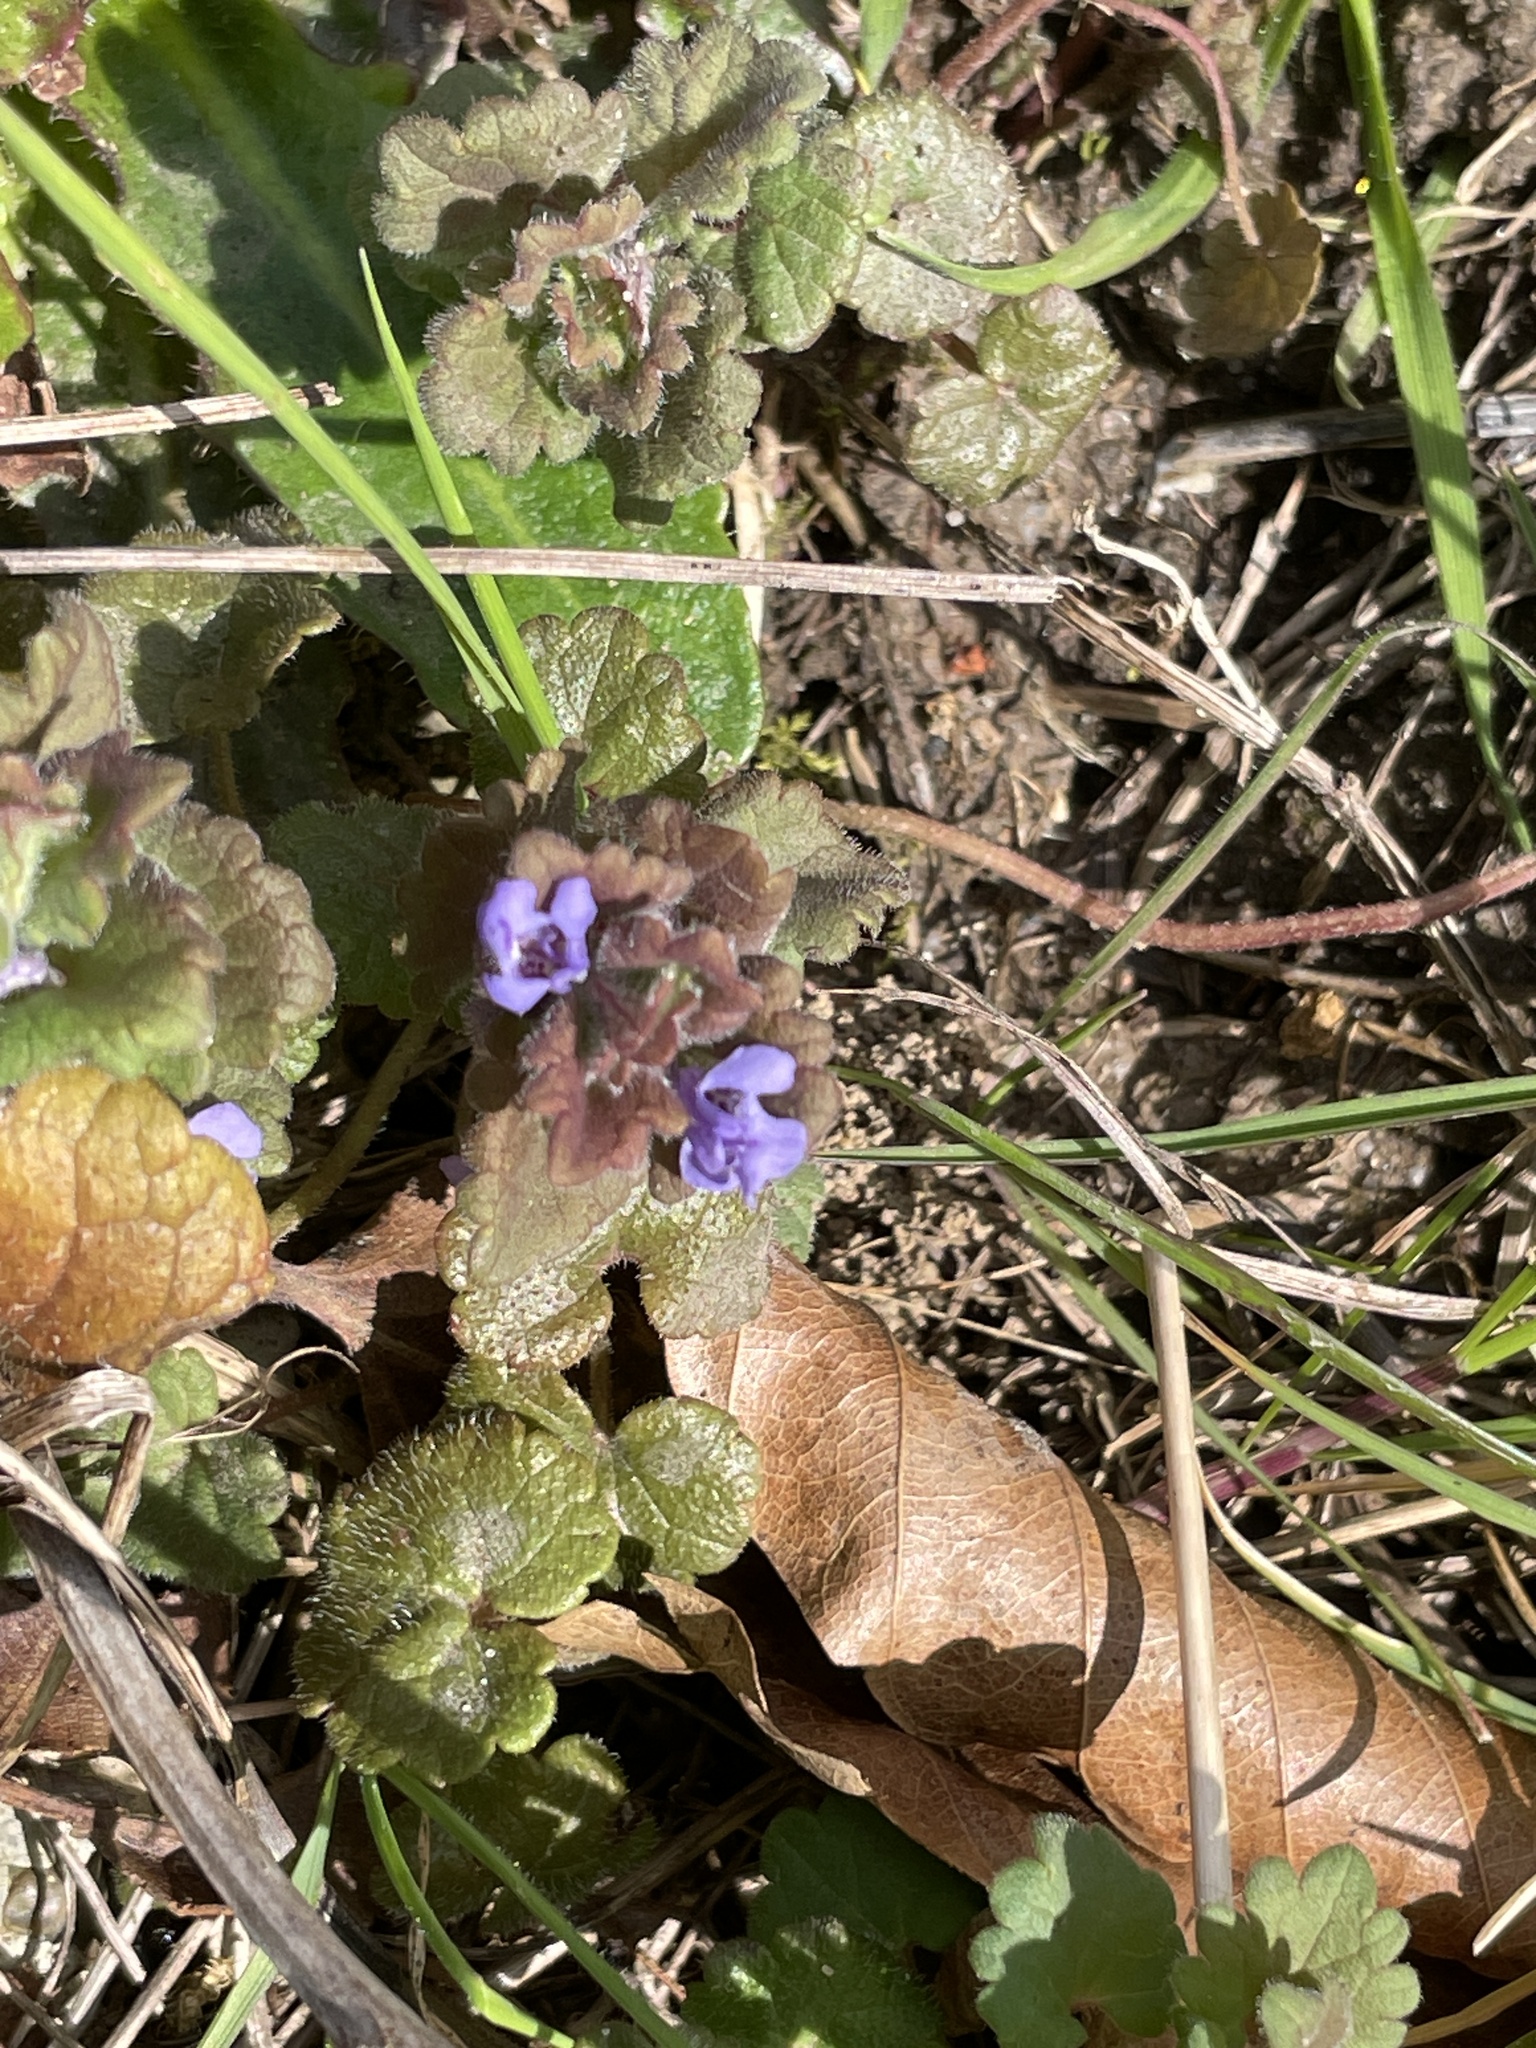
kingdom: Plantae
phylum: Tracheophyta
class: Magnoliopsida
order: Lamiales
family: Lamiaceae
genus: Glechoma
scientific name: Glechoma hederacea
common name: Ground ivy
